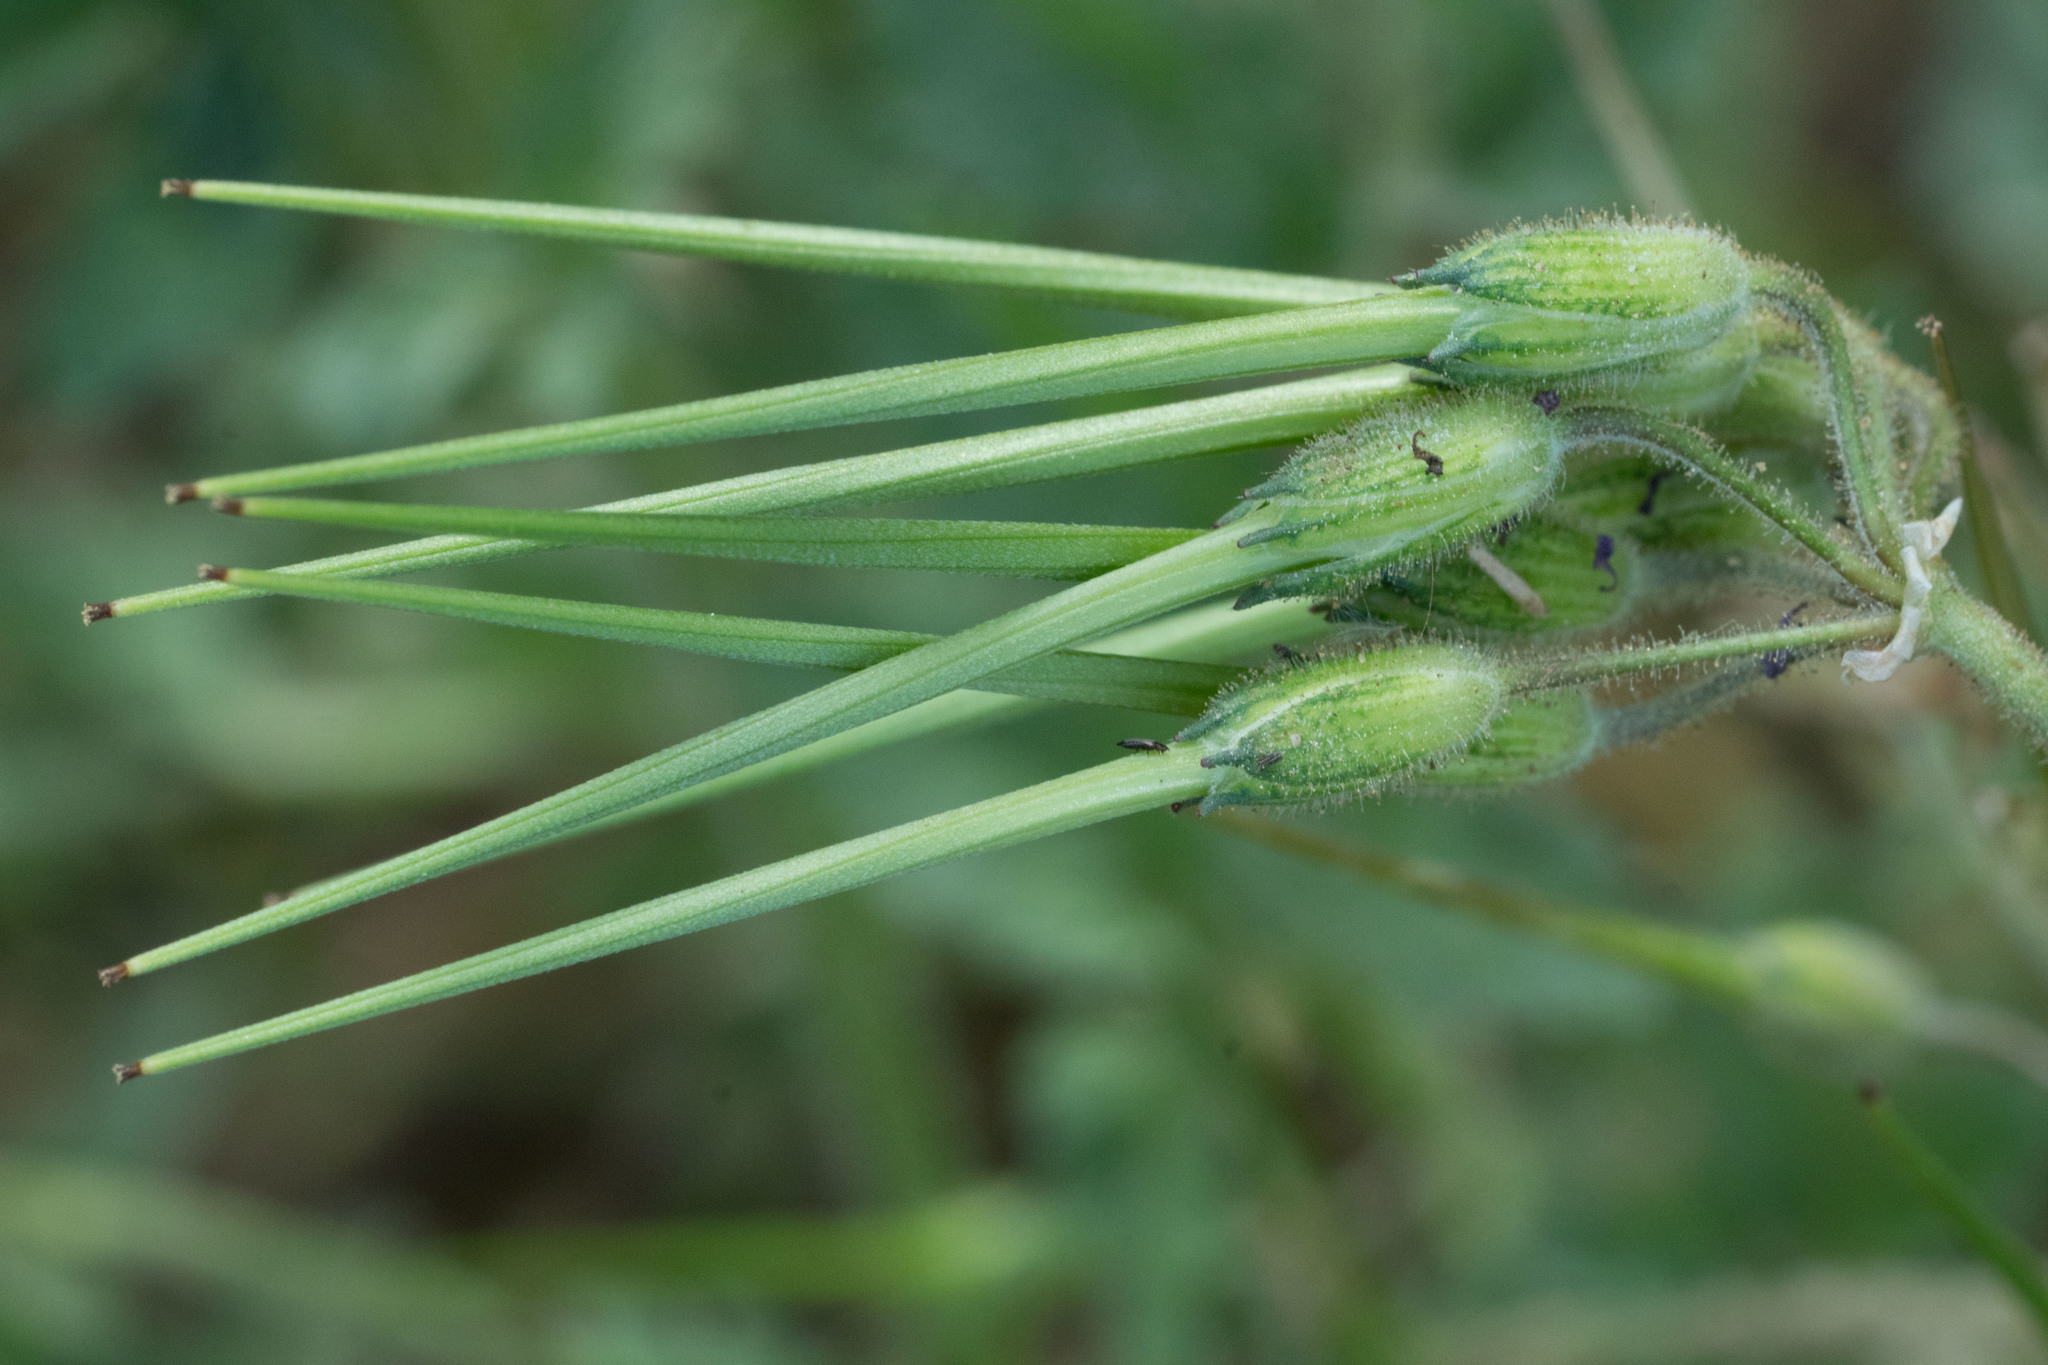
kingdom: Plantae
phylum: Tracheophyta
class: Magnoliopsida
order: Geraniales
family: Geraniaceae
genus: Erodium
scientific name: Erodium moschatum
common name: Musk stork's-bill
